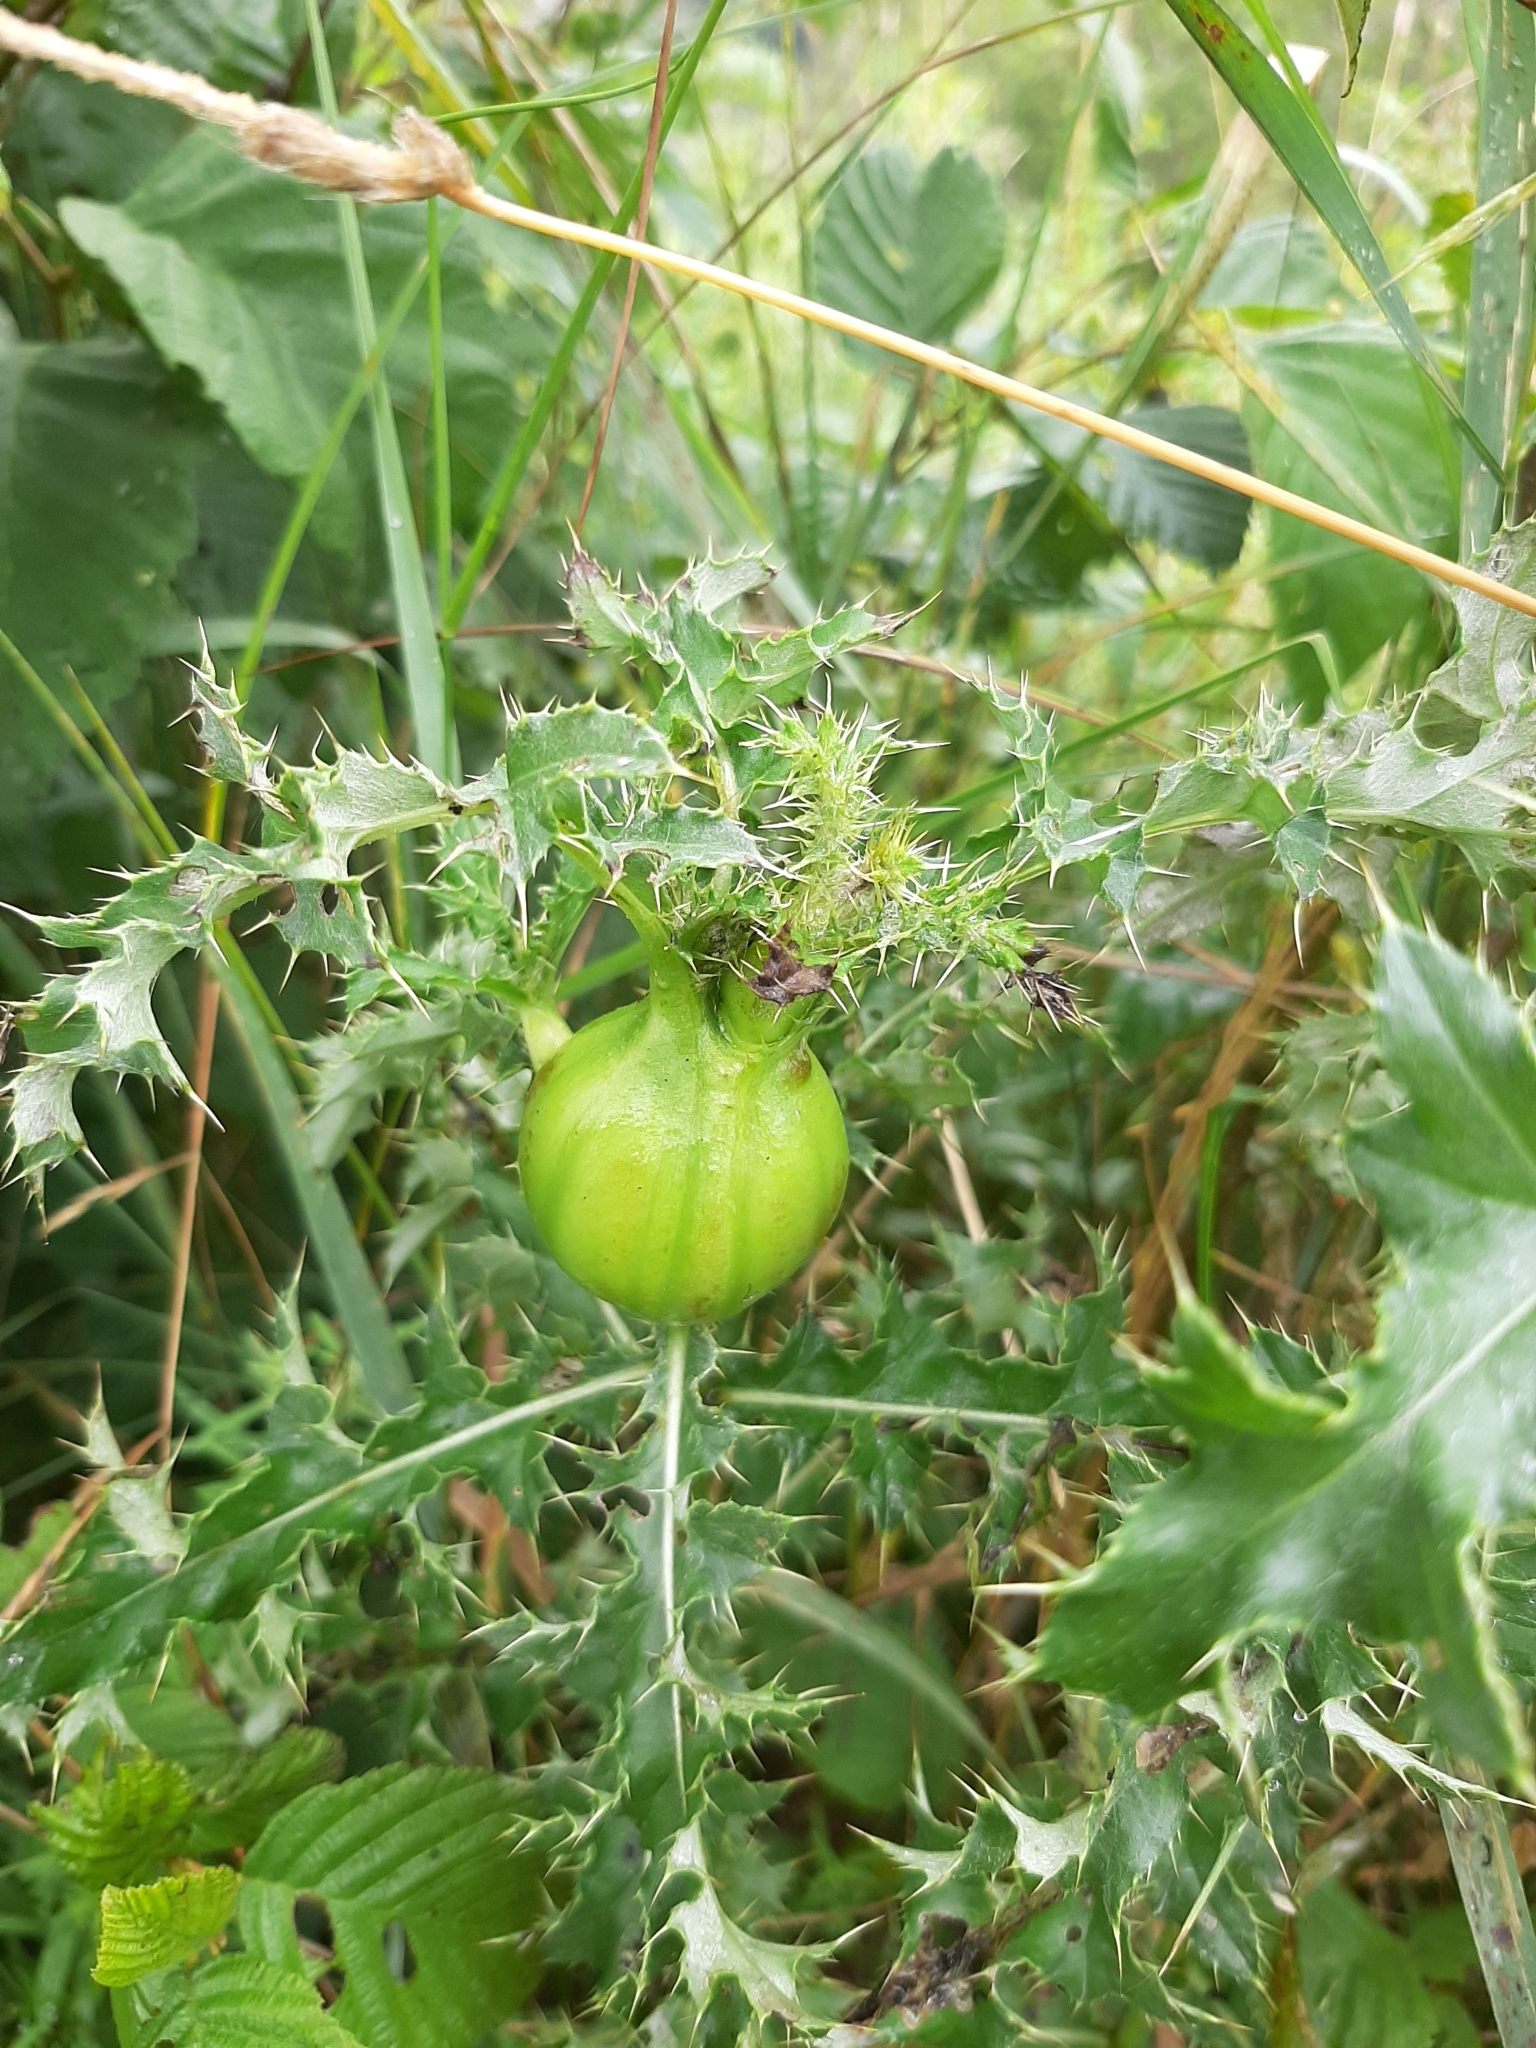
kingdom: Animalia
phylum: Arthropoda
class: Insecta
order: Diptera
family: Tephritidae
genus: Urophora
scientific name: Urophora cardui
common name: Fruit fly
